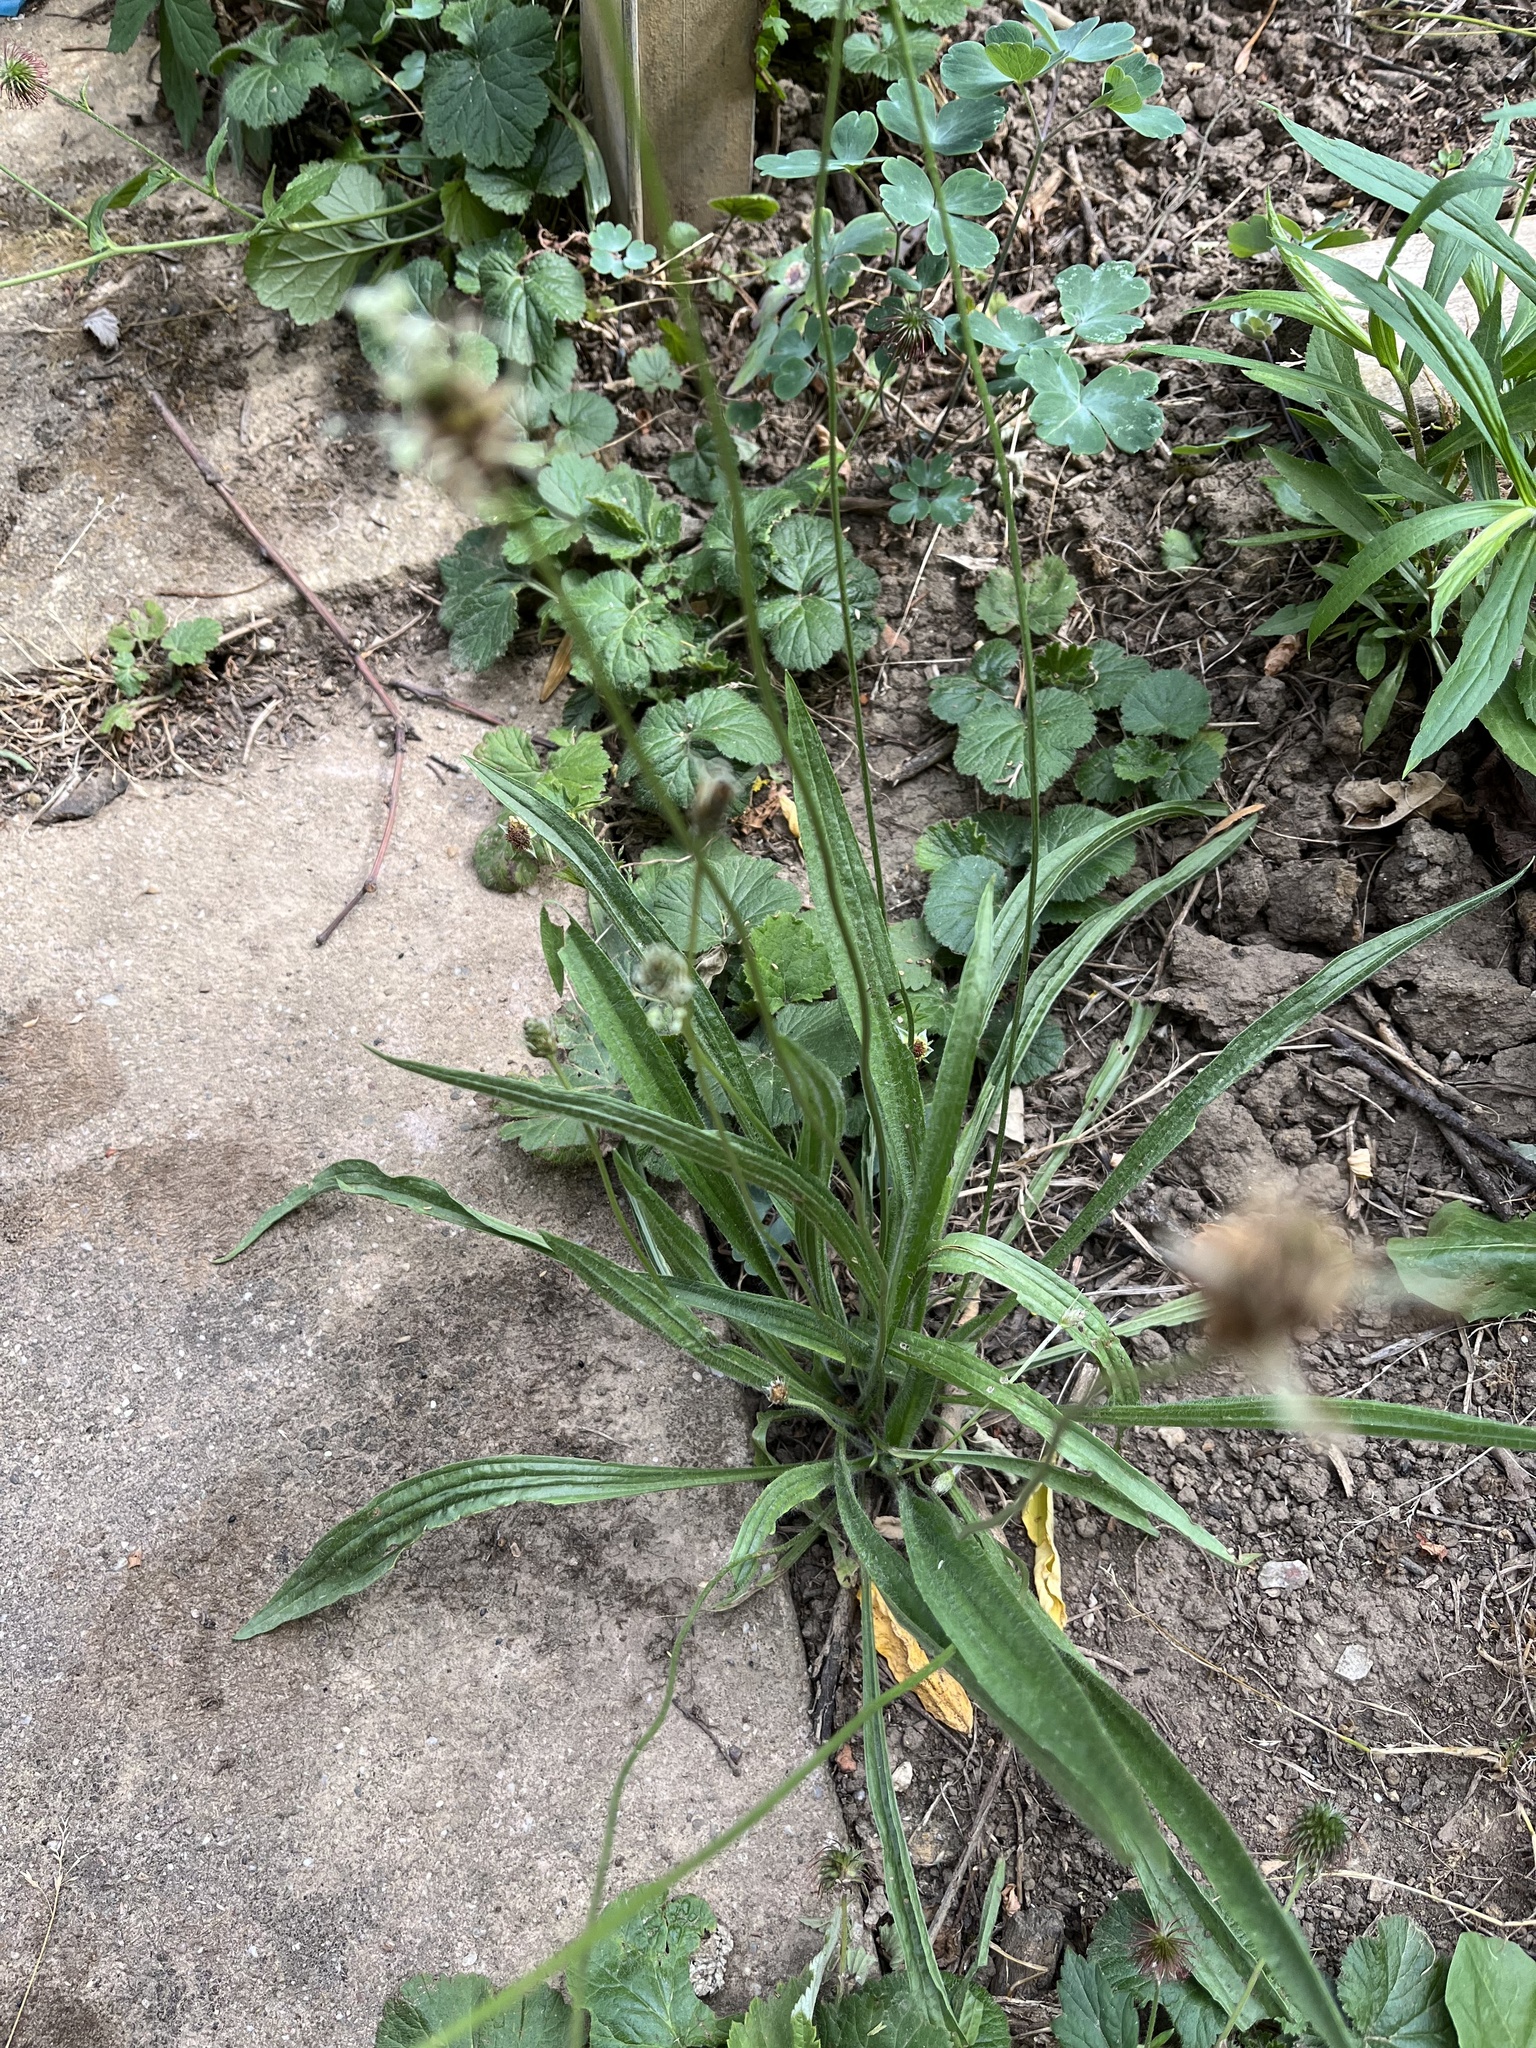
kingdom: Plantae
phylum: Tracheophyta
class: Magnoliopsida
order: Lamiales
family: Plantaginaceae
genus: Plantago
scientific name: Plantago lanceolata
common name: Ribwort plantain
